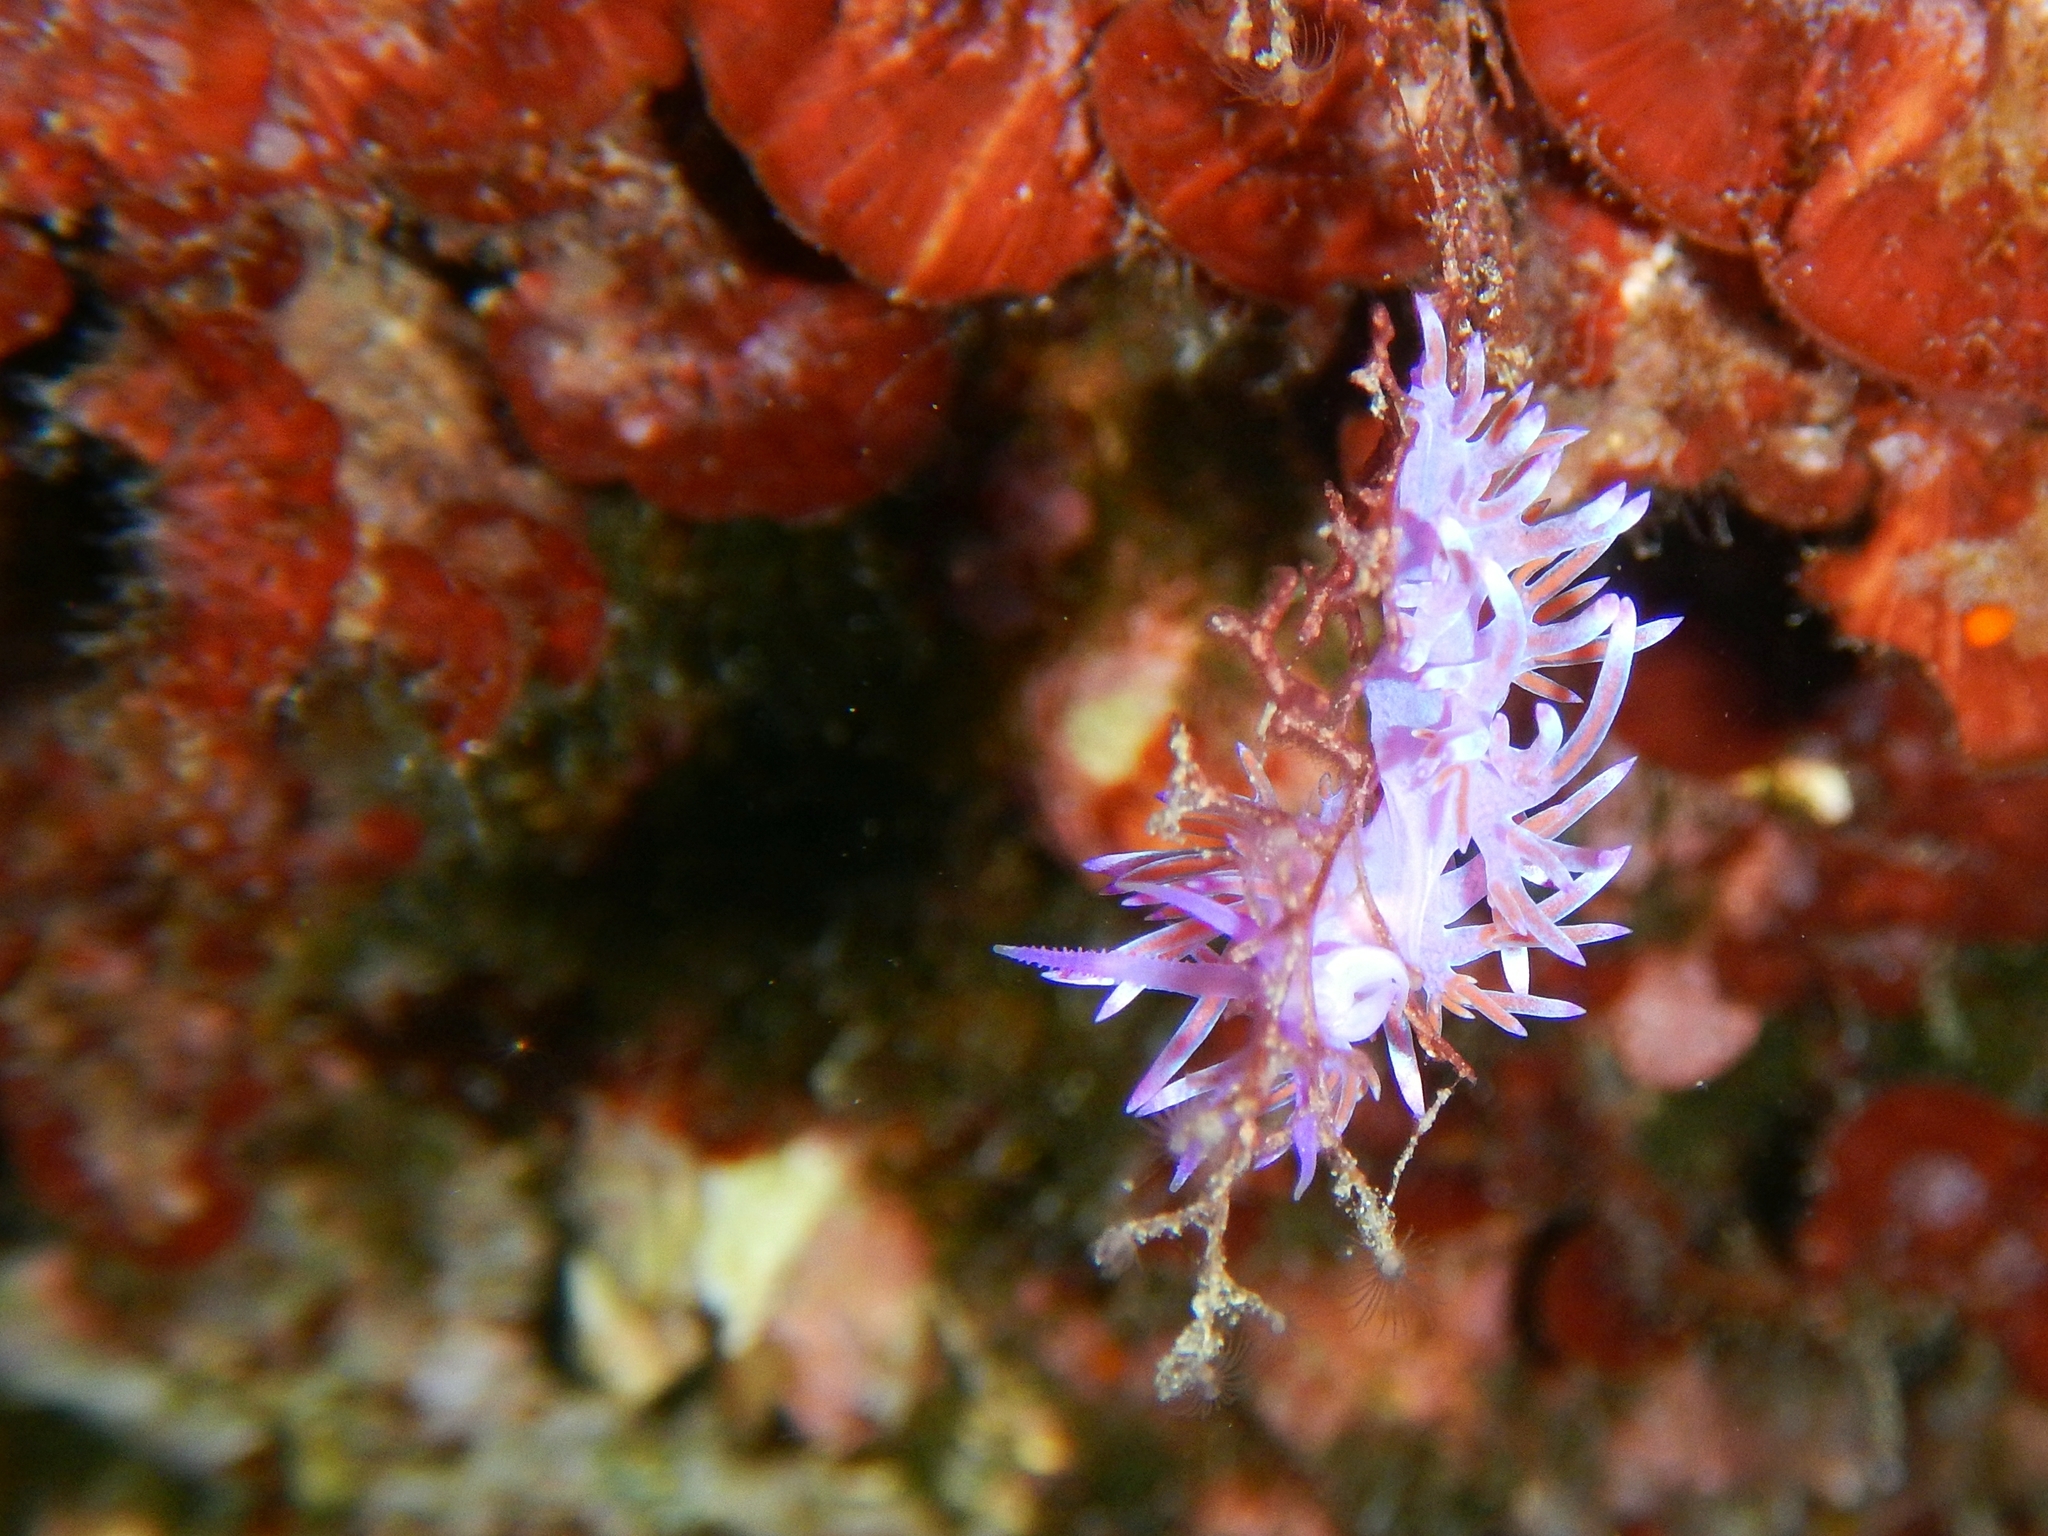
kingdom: Animalia
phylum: Mollusca
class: Gastropoda
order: Nudibranchia
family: Flabellinidae
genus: Flabellina
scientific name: Flabellina affinis
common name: Mediterranean violet aeolid
